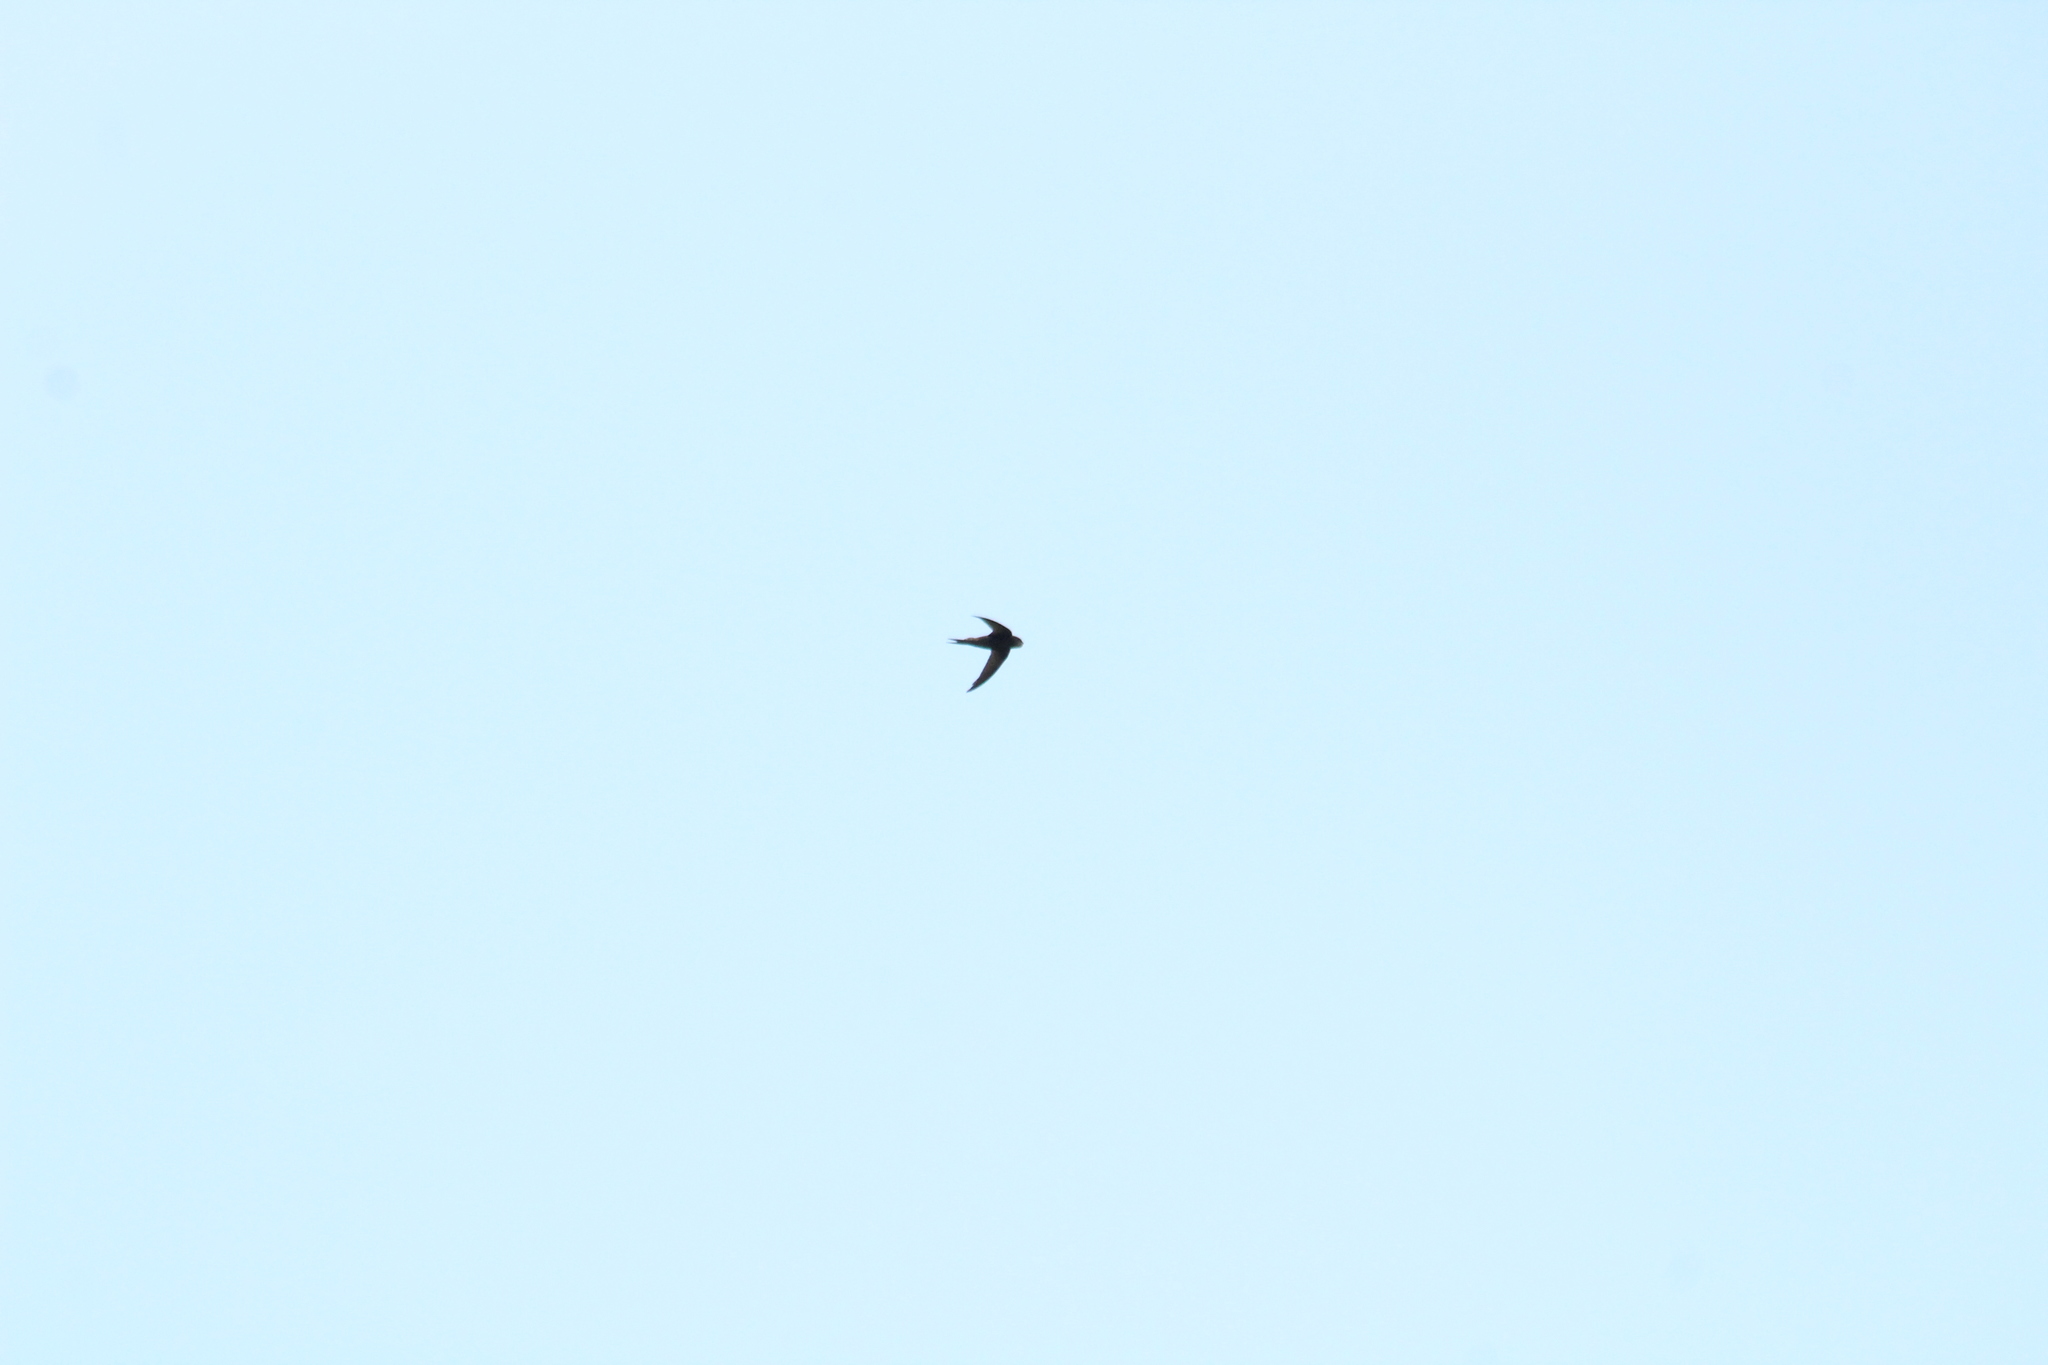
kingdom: Animalia
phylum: Chordata
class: Aves
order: Apodiformes
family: Apodidae
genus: Apus
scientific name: Apus apus
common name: Common swift
